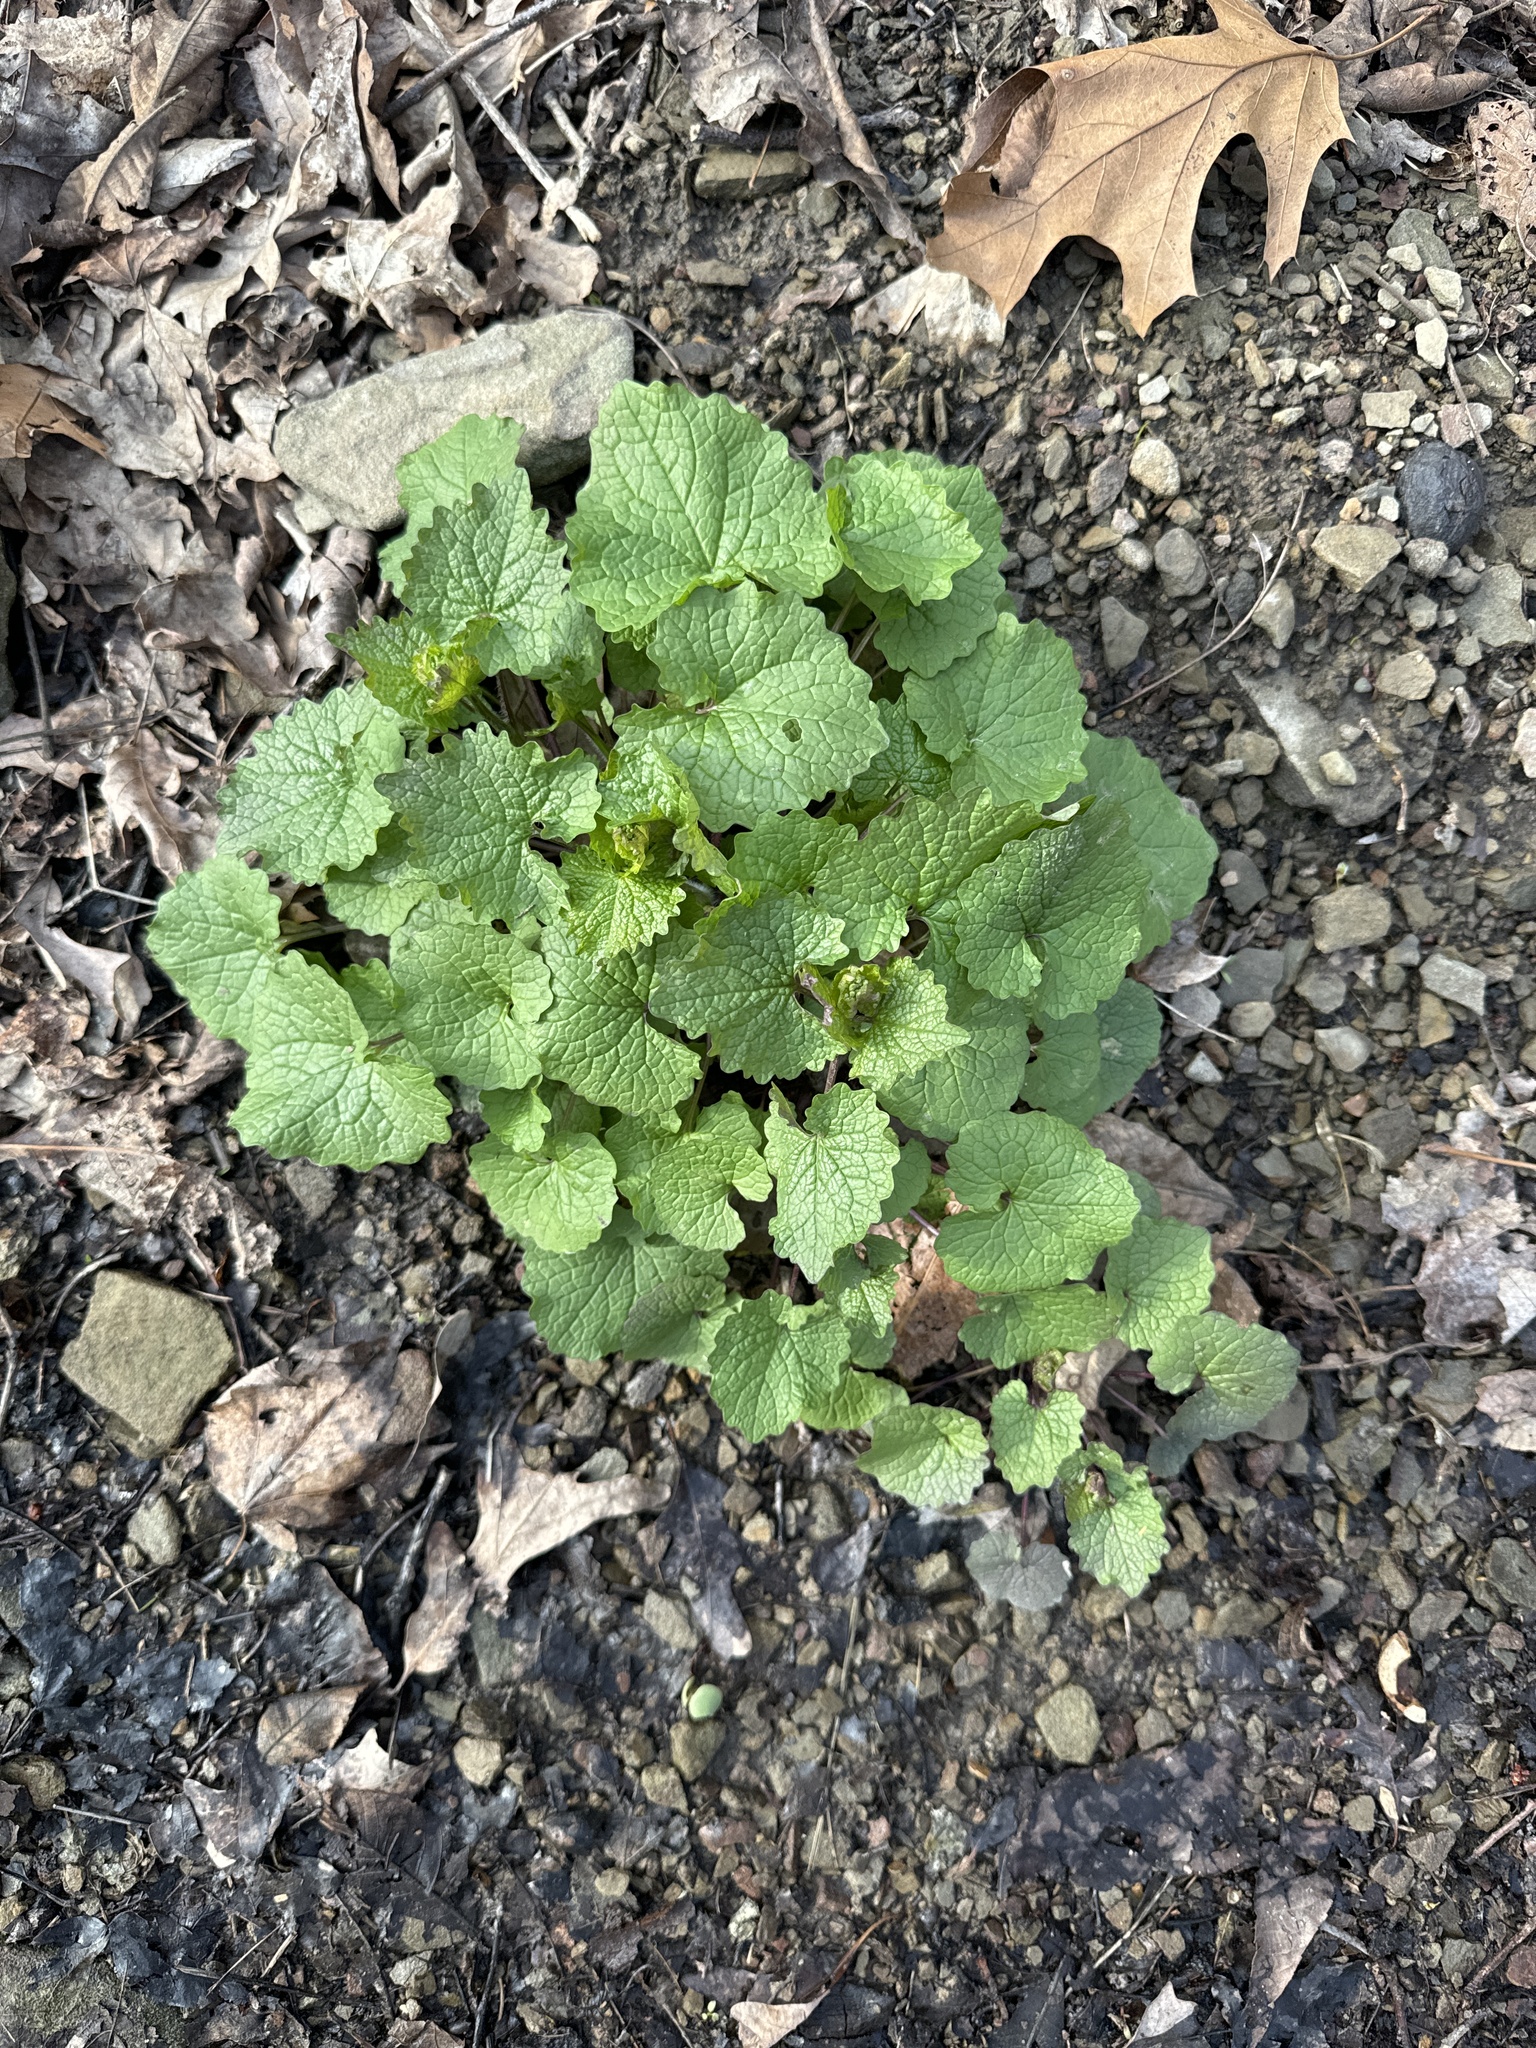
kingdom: Plantae
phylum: Tracheophyta
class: Magnoliopsida
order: Brassicales
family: Brassicaceae
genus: Alliaria
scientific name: Alliaria petiolata
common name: Garlic mustard
